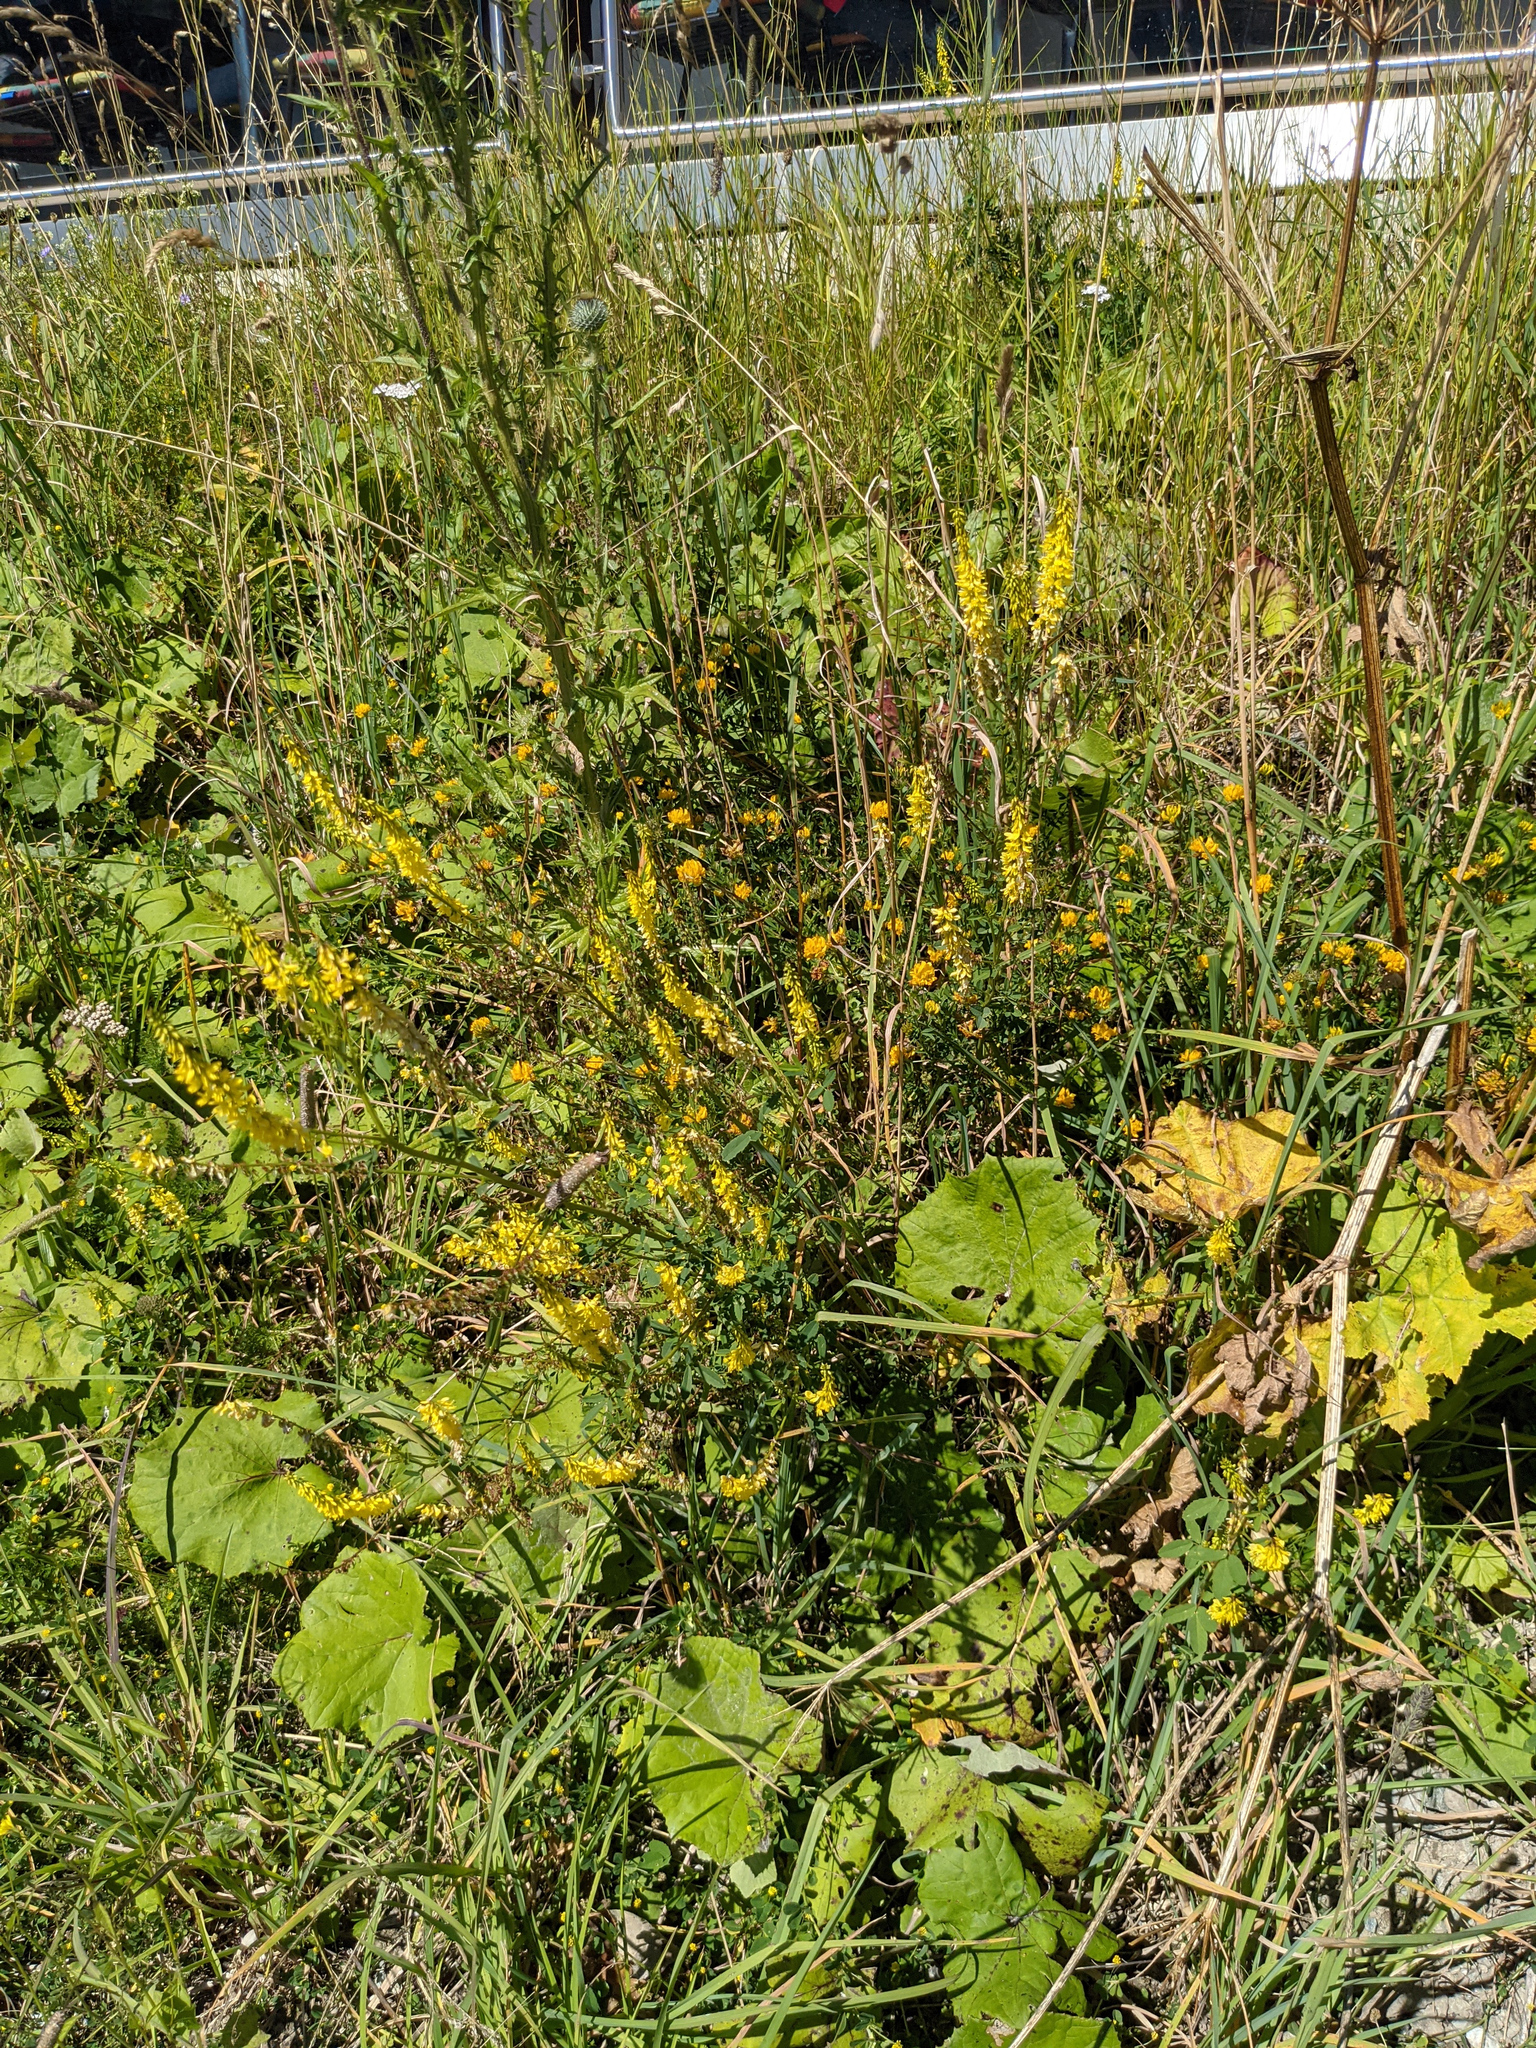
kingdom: Plantae
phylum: Tracheophyta
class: Magnoliopsida
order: Fabales
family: Fabaceae
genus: Melilotus
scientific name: Melilotus officinalis
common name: Sweetclover
